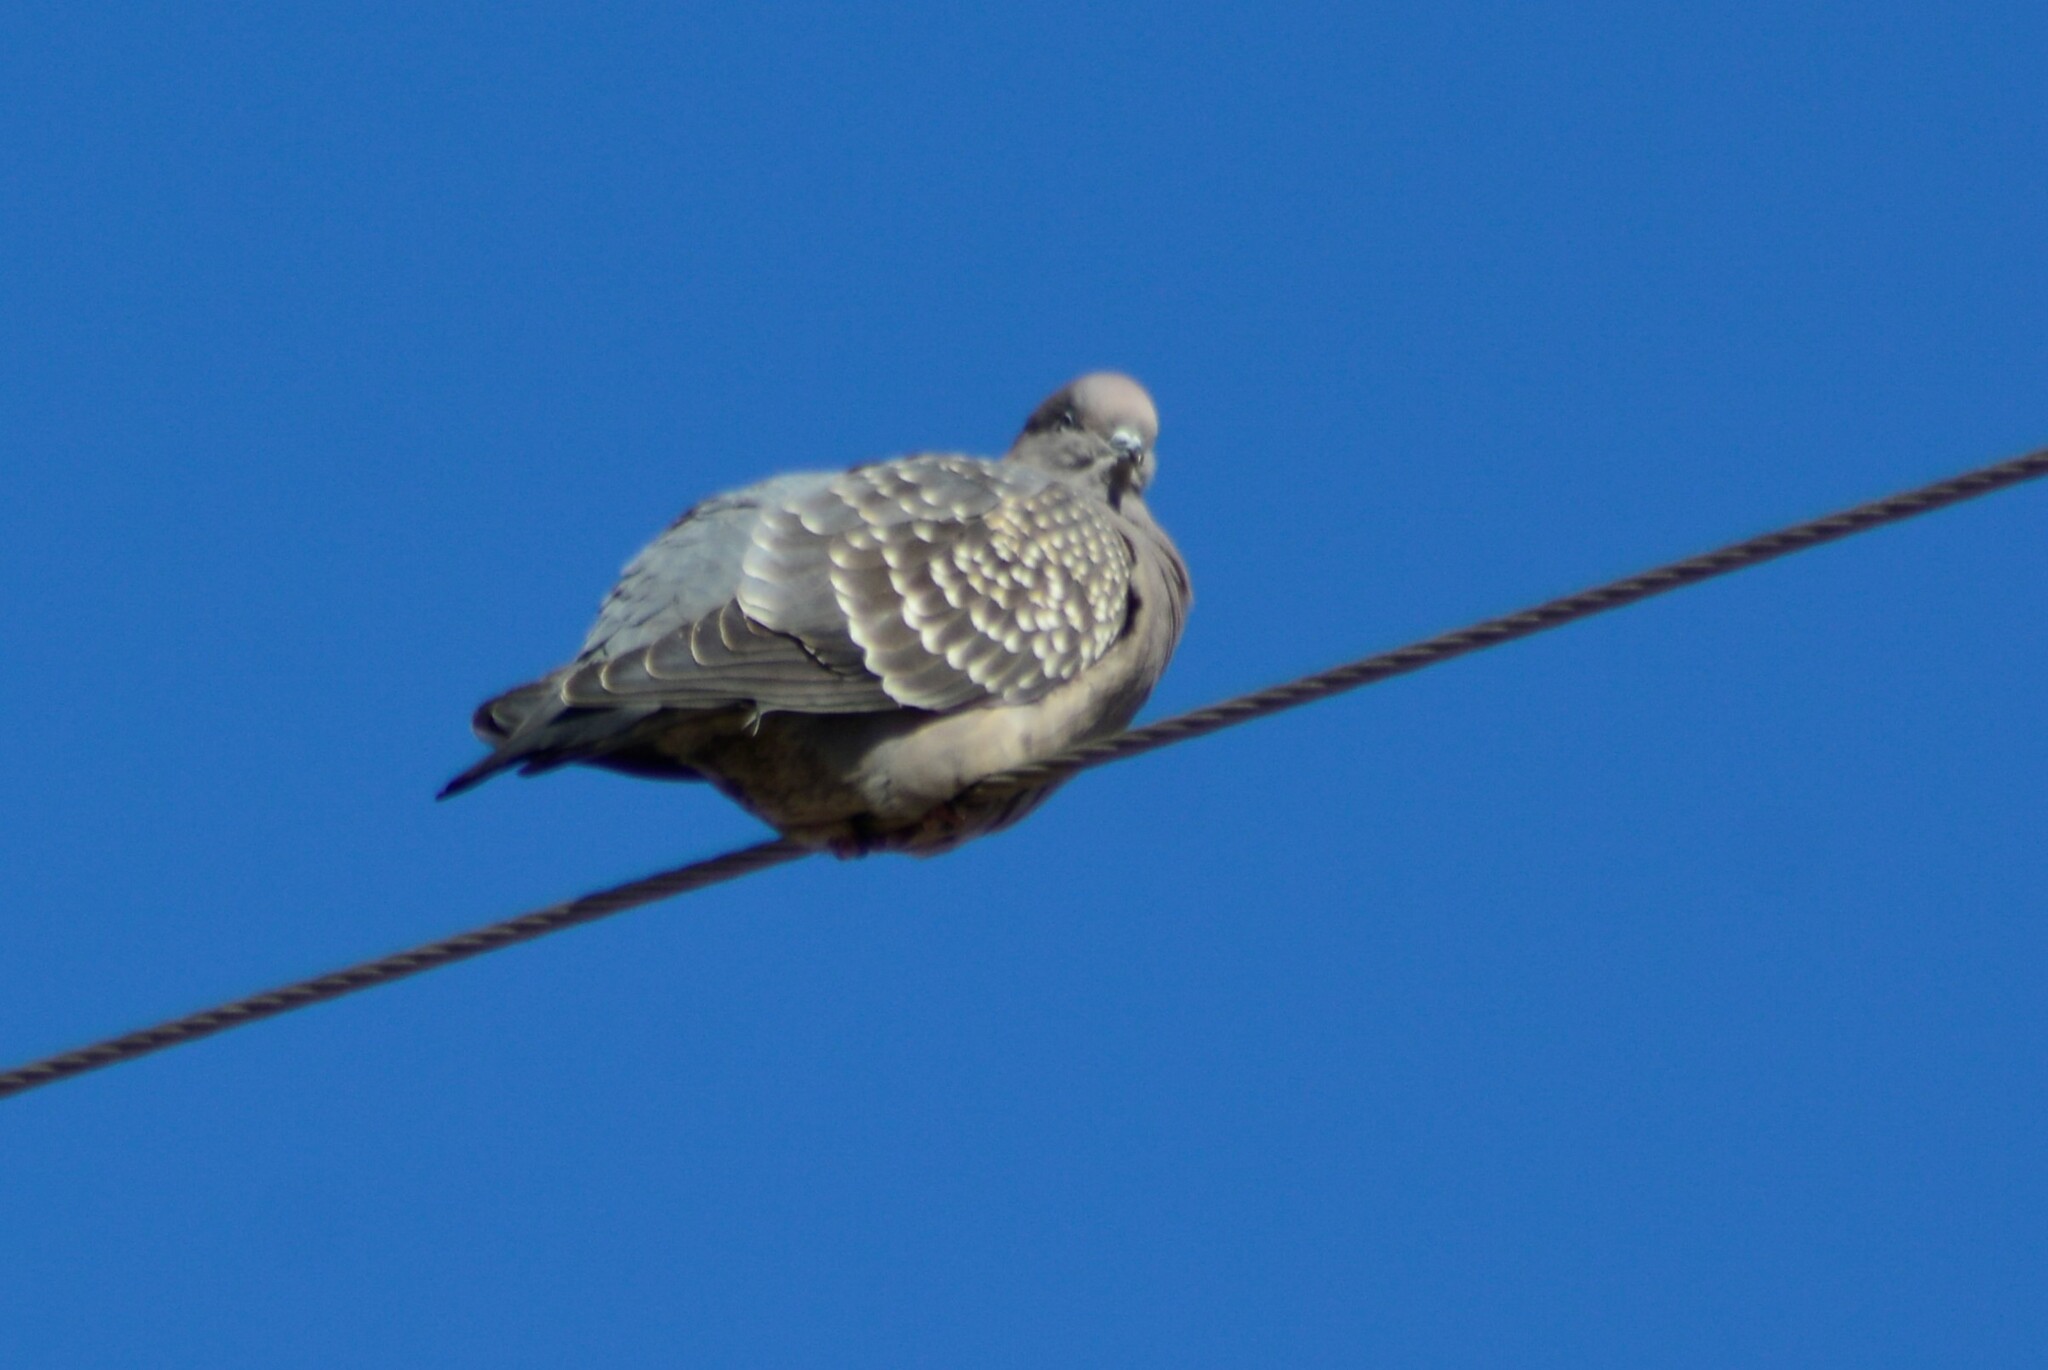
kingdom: Animalia
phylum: Chordata
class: Aves
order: Columbiformes
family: Columbidae
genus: Patagioenas
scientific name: Patagioenas maculosa
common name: Spot-winged pigeon
